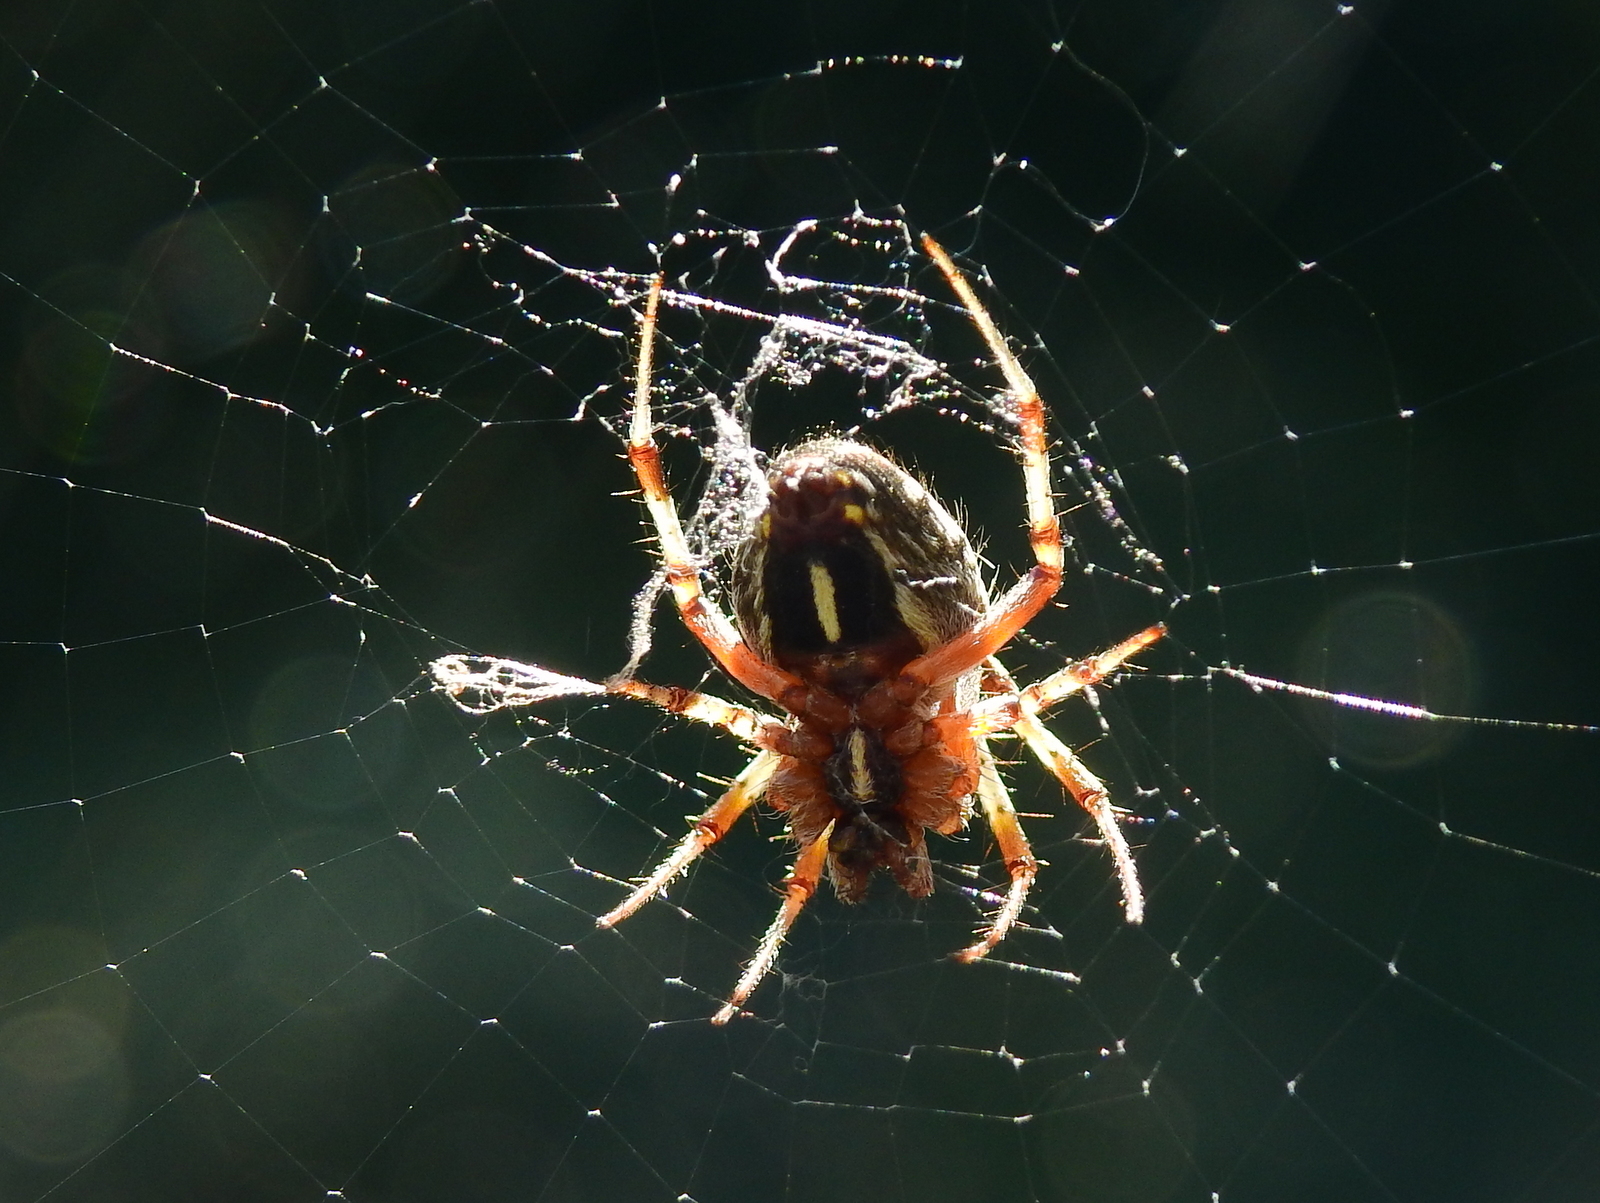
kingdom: Animalia
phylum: Arthropoda
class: Arachnida
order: Araneae
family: Araneidae
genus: Metepeira
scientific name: Metepeira
